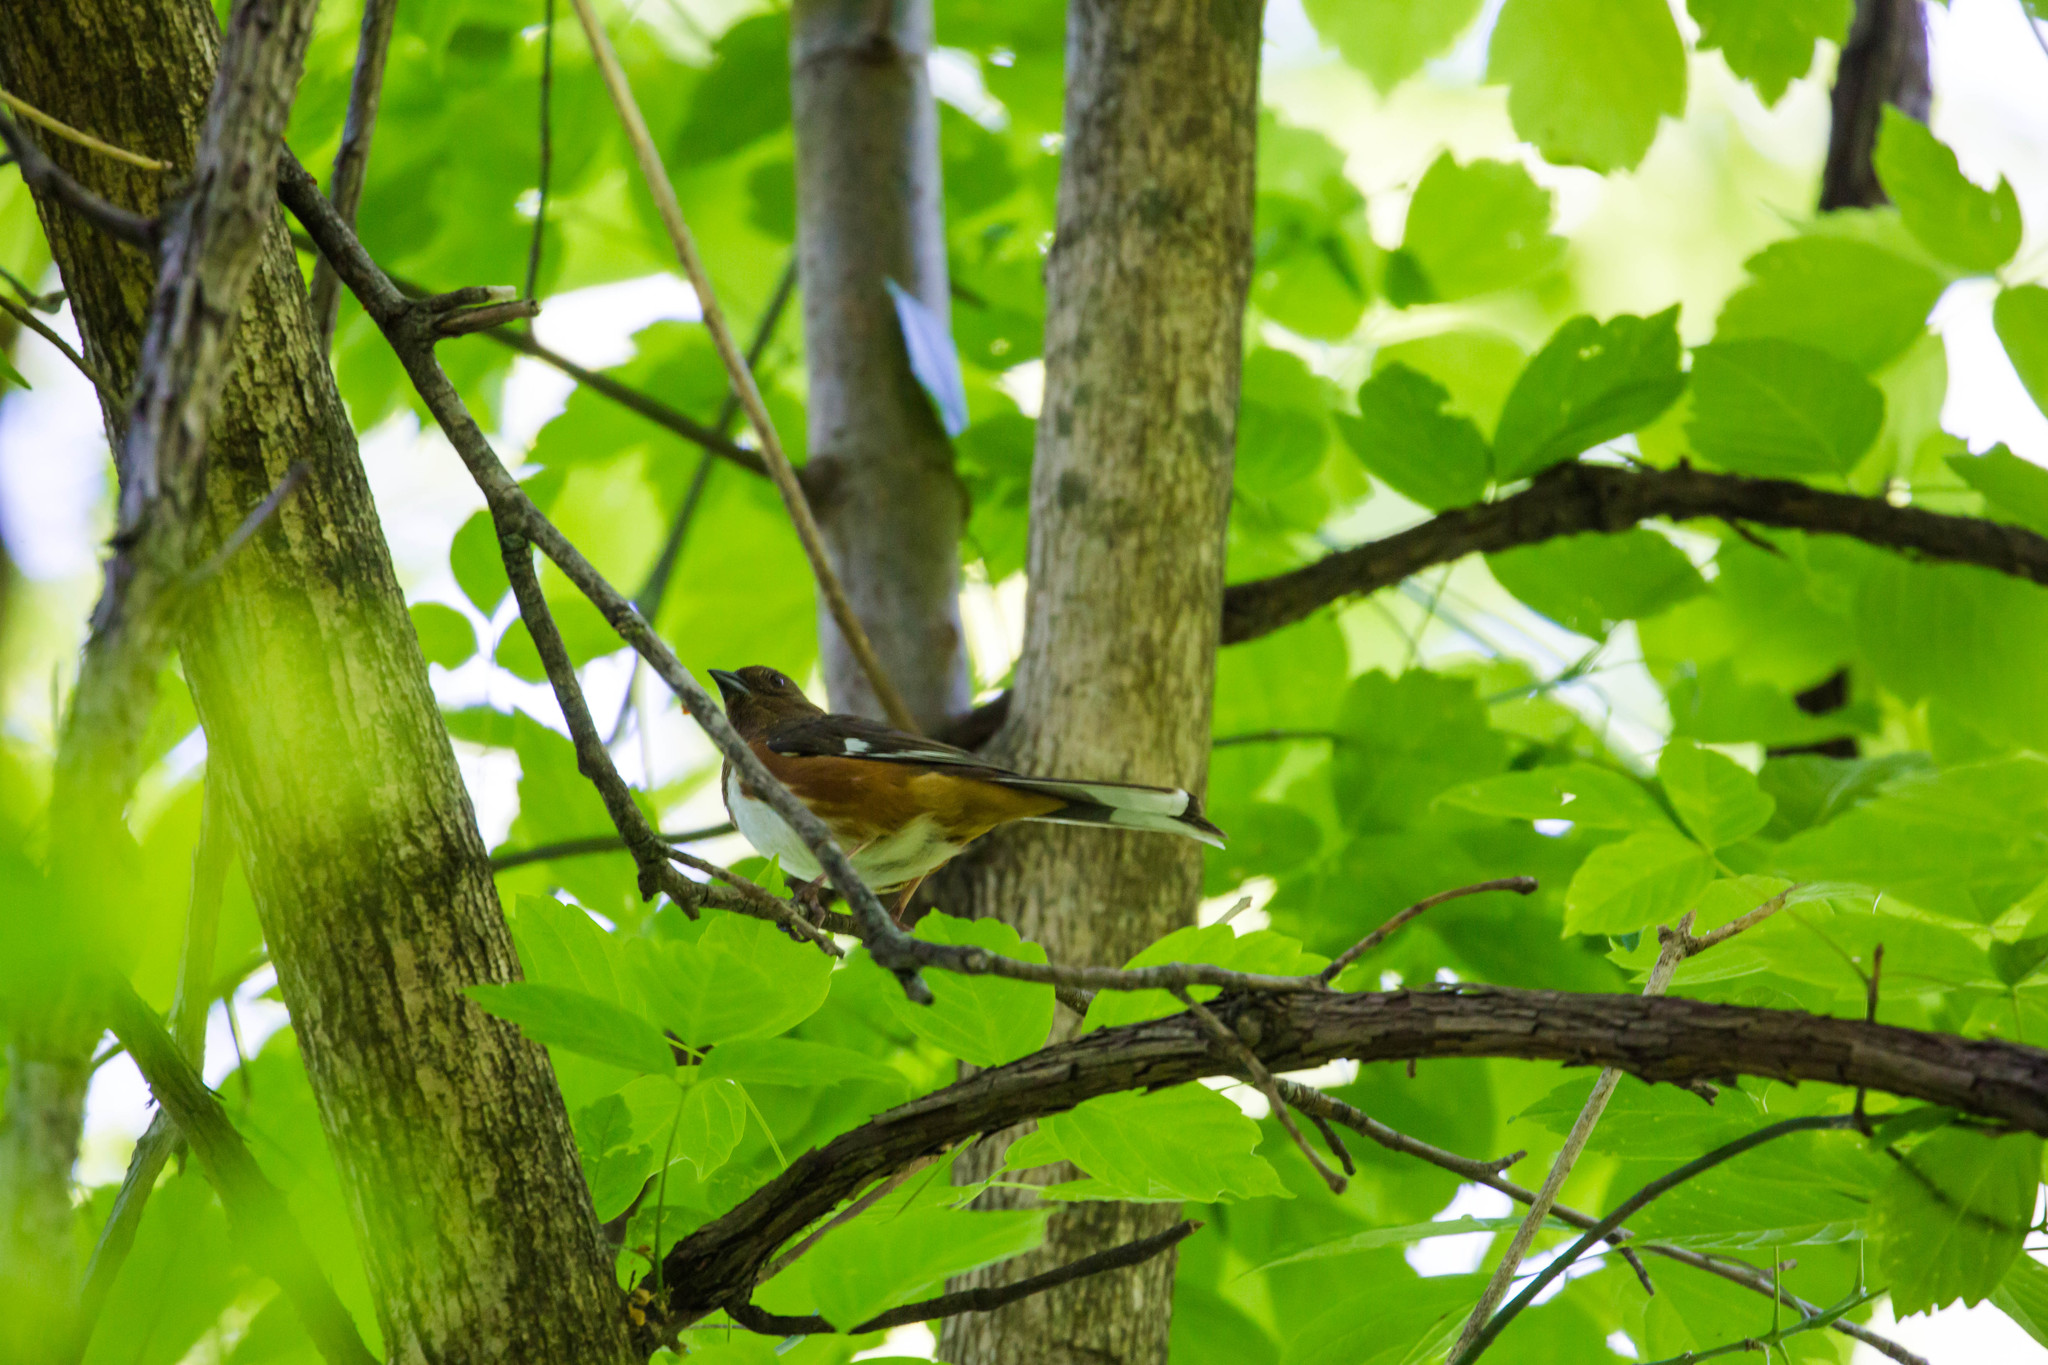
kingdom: Animalia
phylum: Chordata
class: Aves
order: Passeriformes
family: Passerellidae
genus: Pipilo
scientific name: Pipilo erythrophthalmus
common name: Eastern towhee
